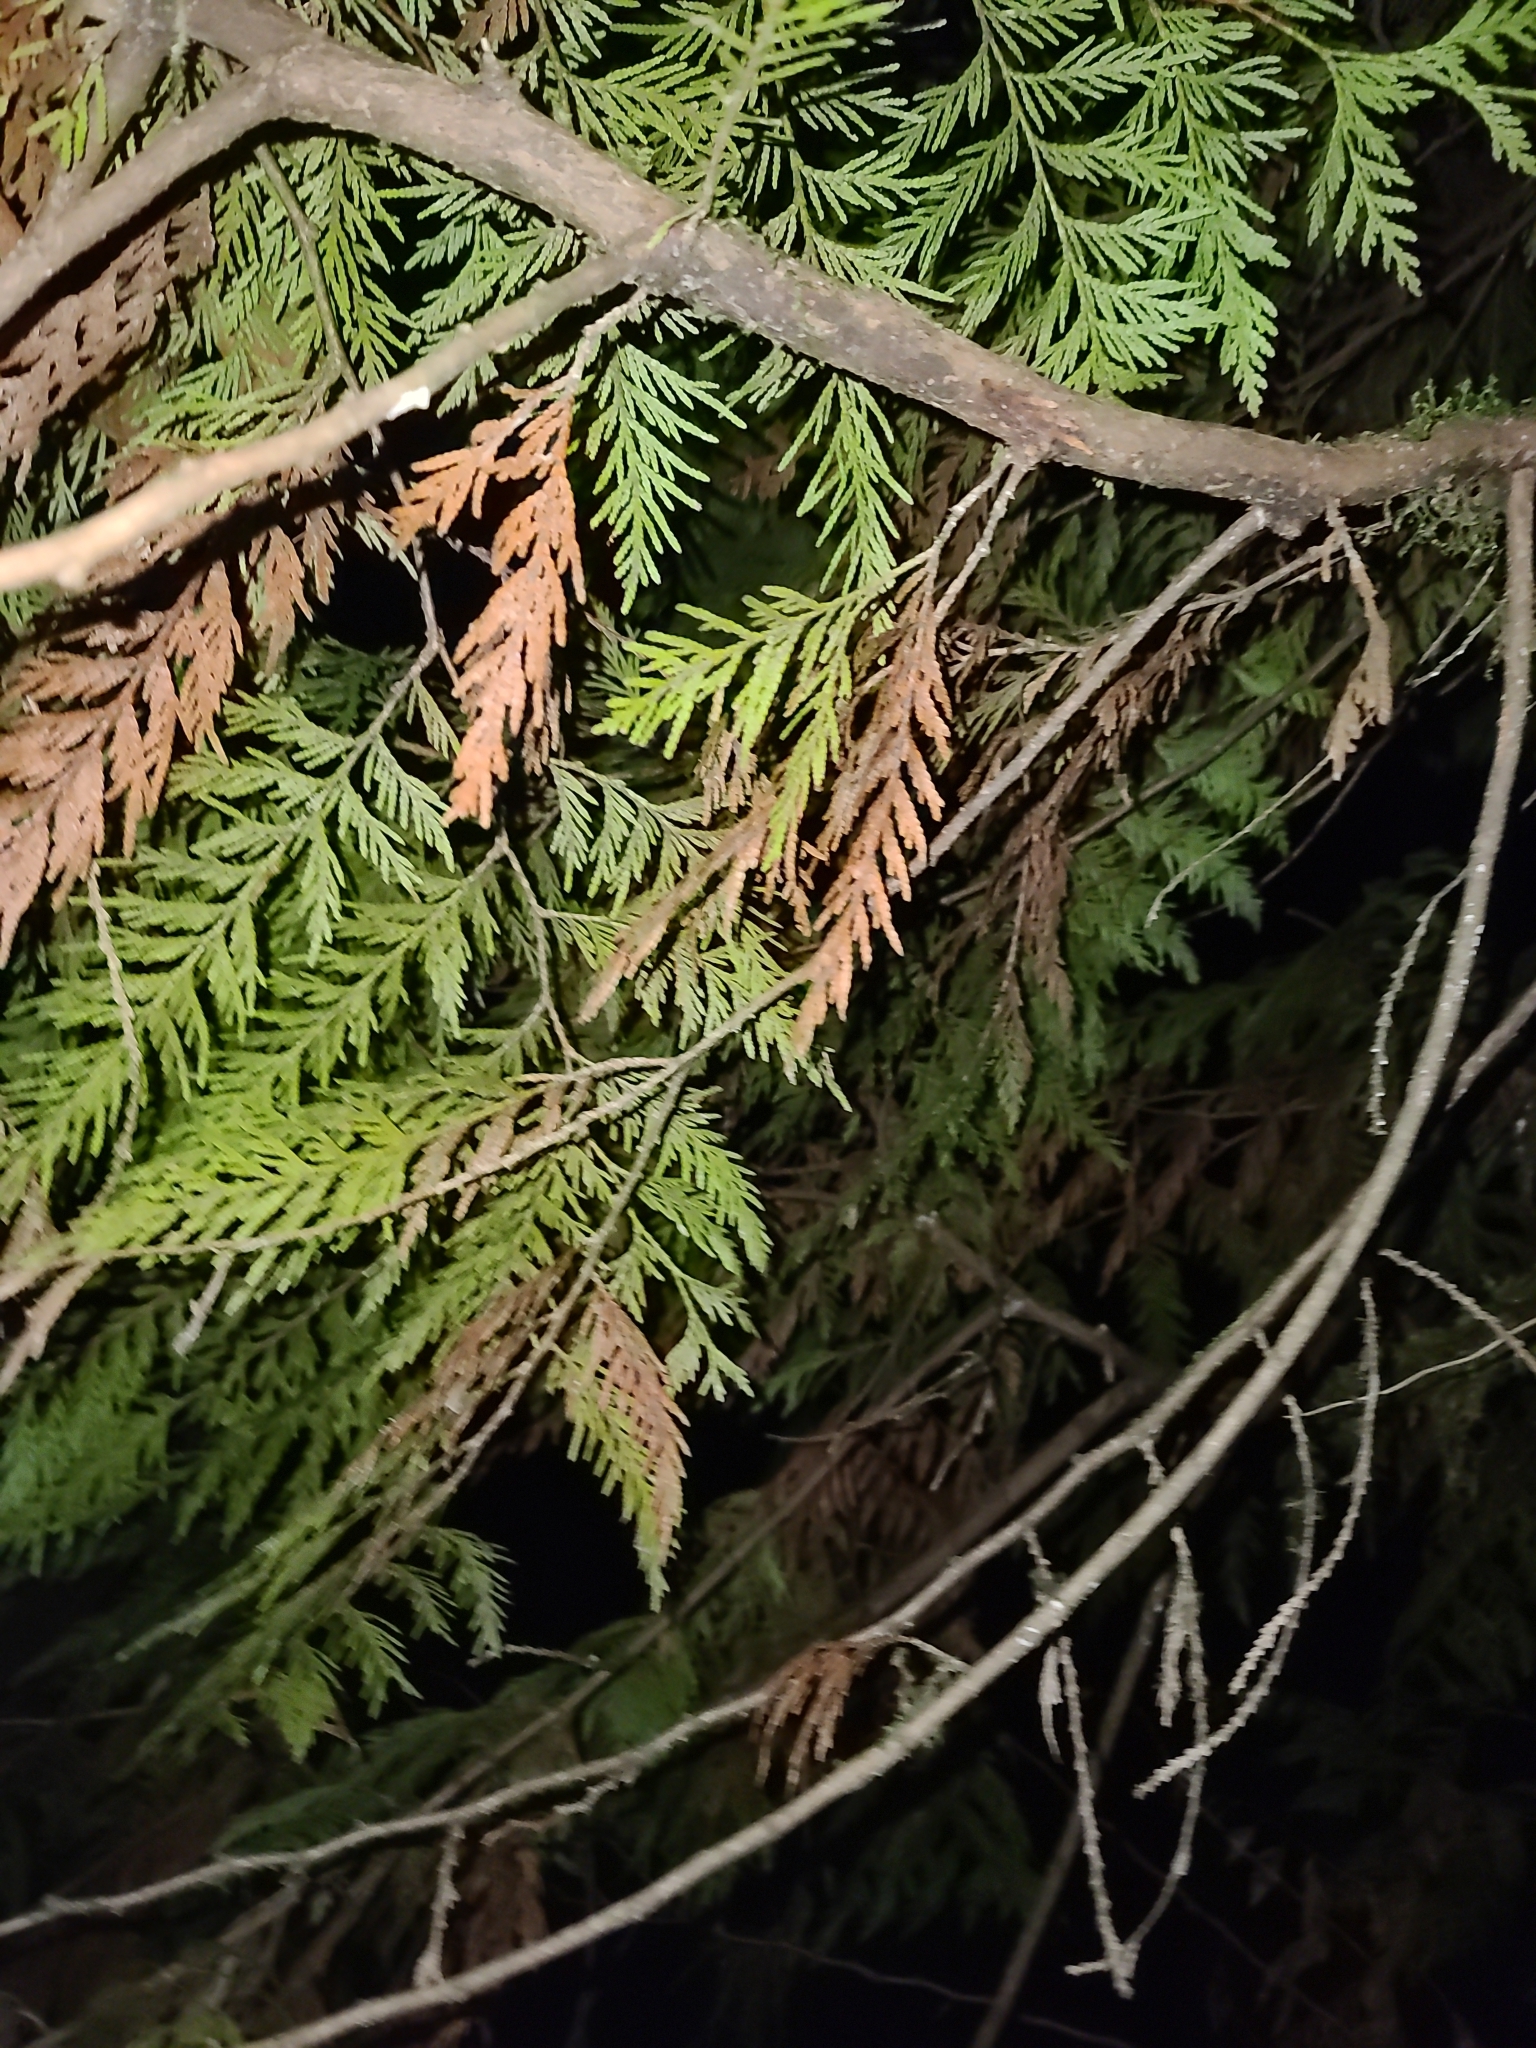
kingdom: Plantae
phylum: Tracheophyta
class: Pinopsida
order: Pinales
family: Cupressaceae
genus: Thuja
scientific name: Thuja plicata
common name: Western red-cedar
